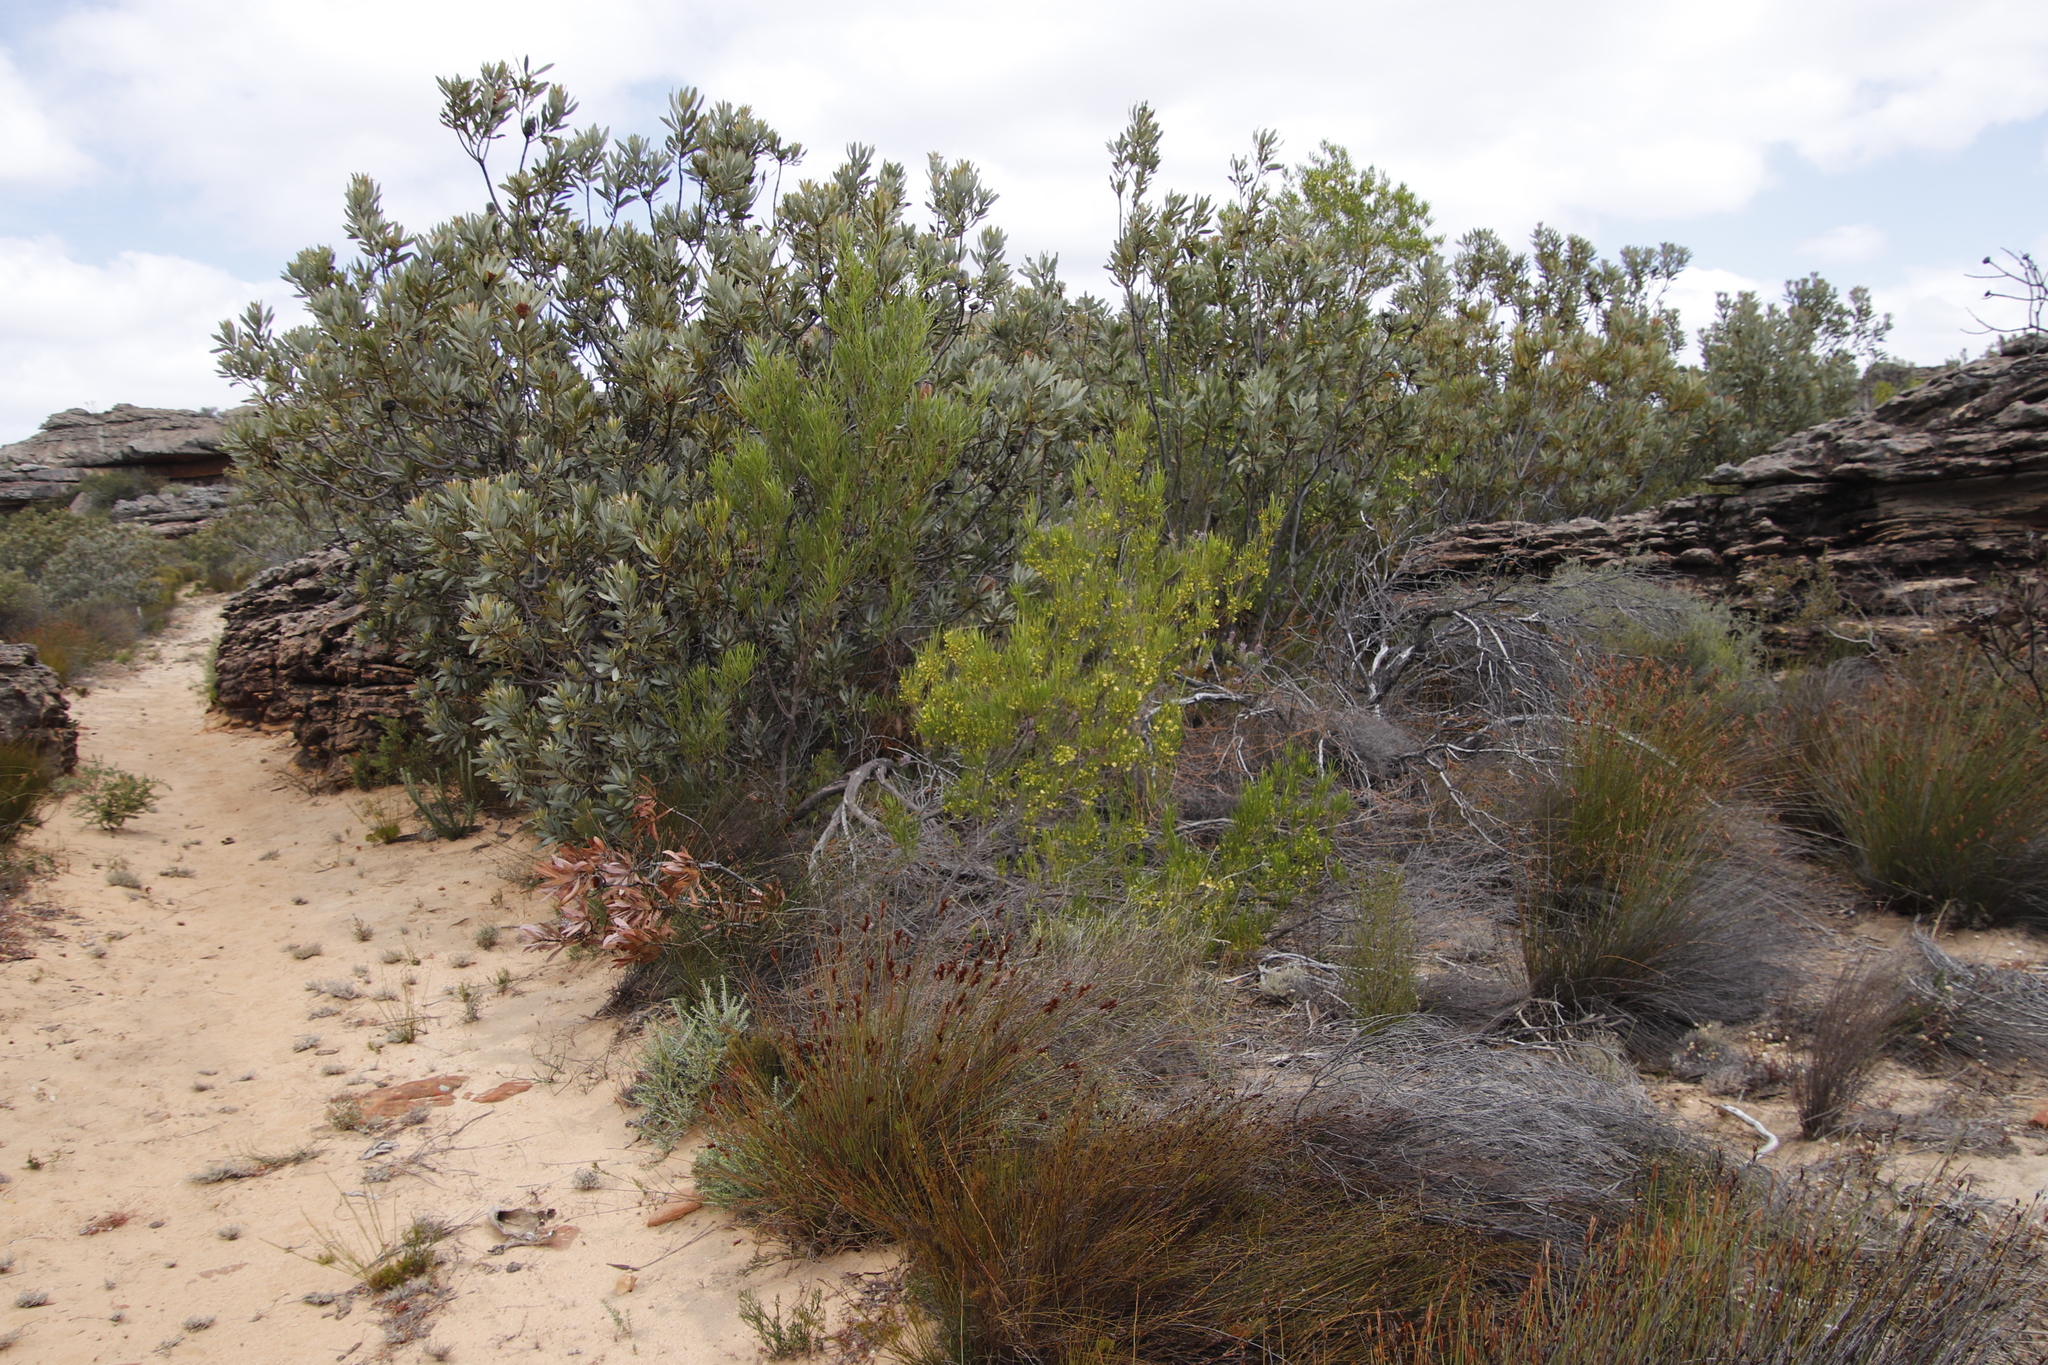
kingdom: Plantae
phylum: Tracheophyta
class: Magnoliopsida
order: Sapindales
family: Sapindaceae
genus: Dodonaea
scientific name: Dodonaea viscosa
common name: Hopbush
